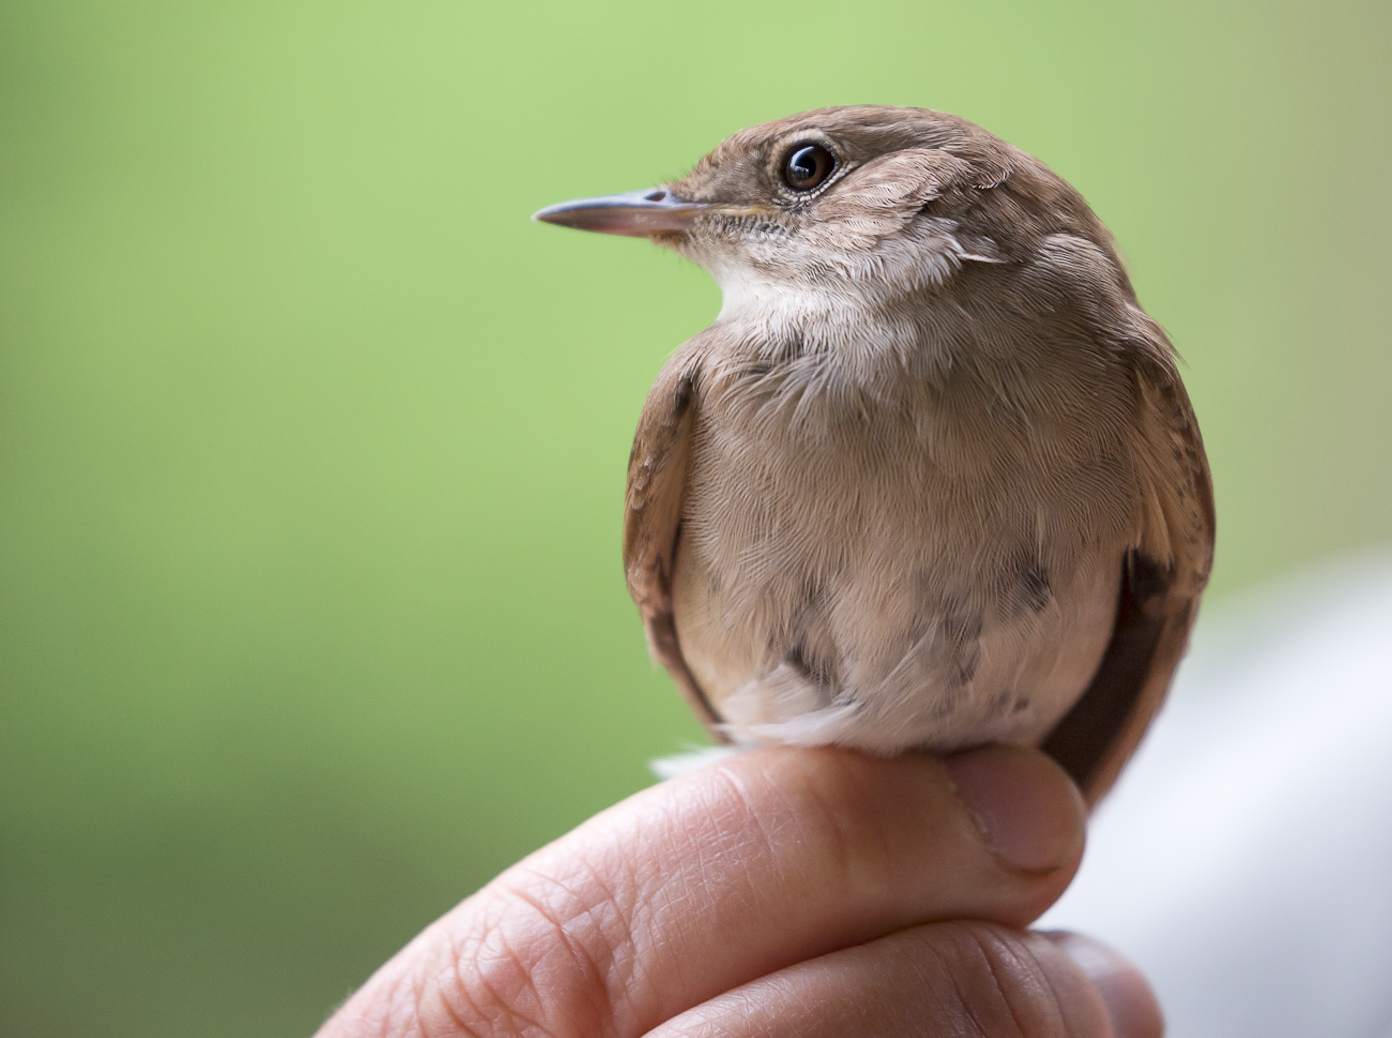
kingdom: Animalia
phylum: Chordata
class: Aves
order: Passeriformes
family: Muscicapidae
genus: Luscinia
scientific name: Luscinia megarhynchos
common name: Common nightingale
